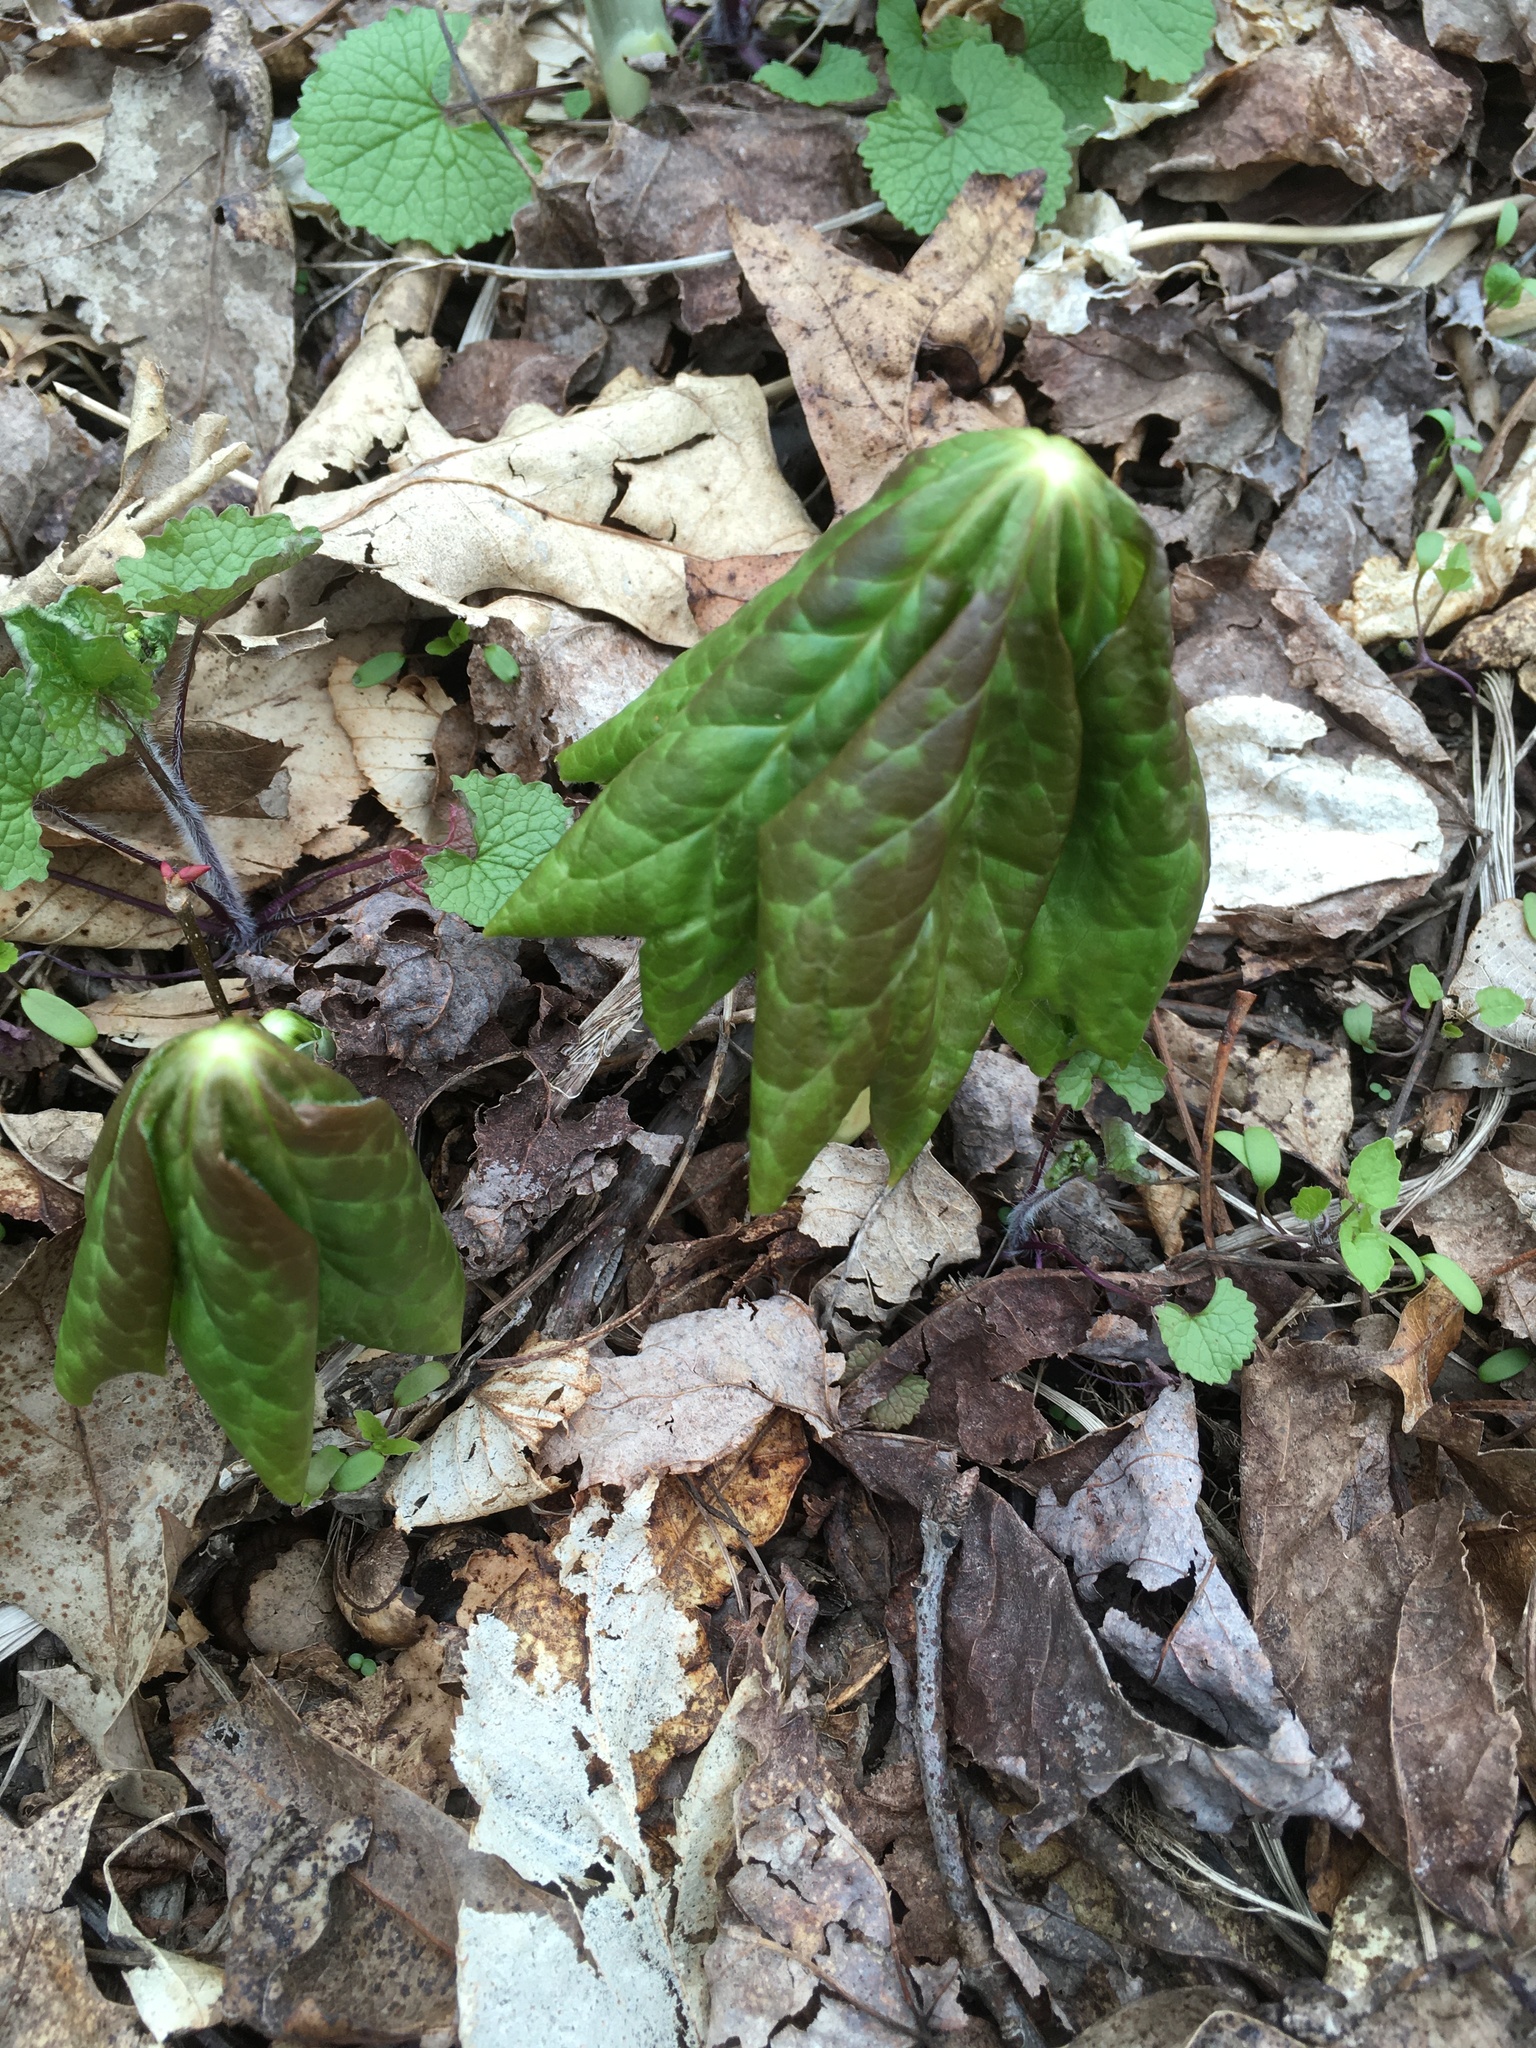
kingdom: Plantae
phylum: Tracheophyta
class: Magnoliopsida
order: Ranunculales
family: Berberidaceae
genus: Podophyllum
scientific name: Podophyllum peltatum
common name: Wild mandrake
